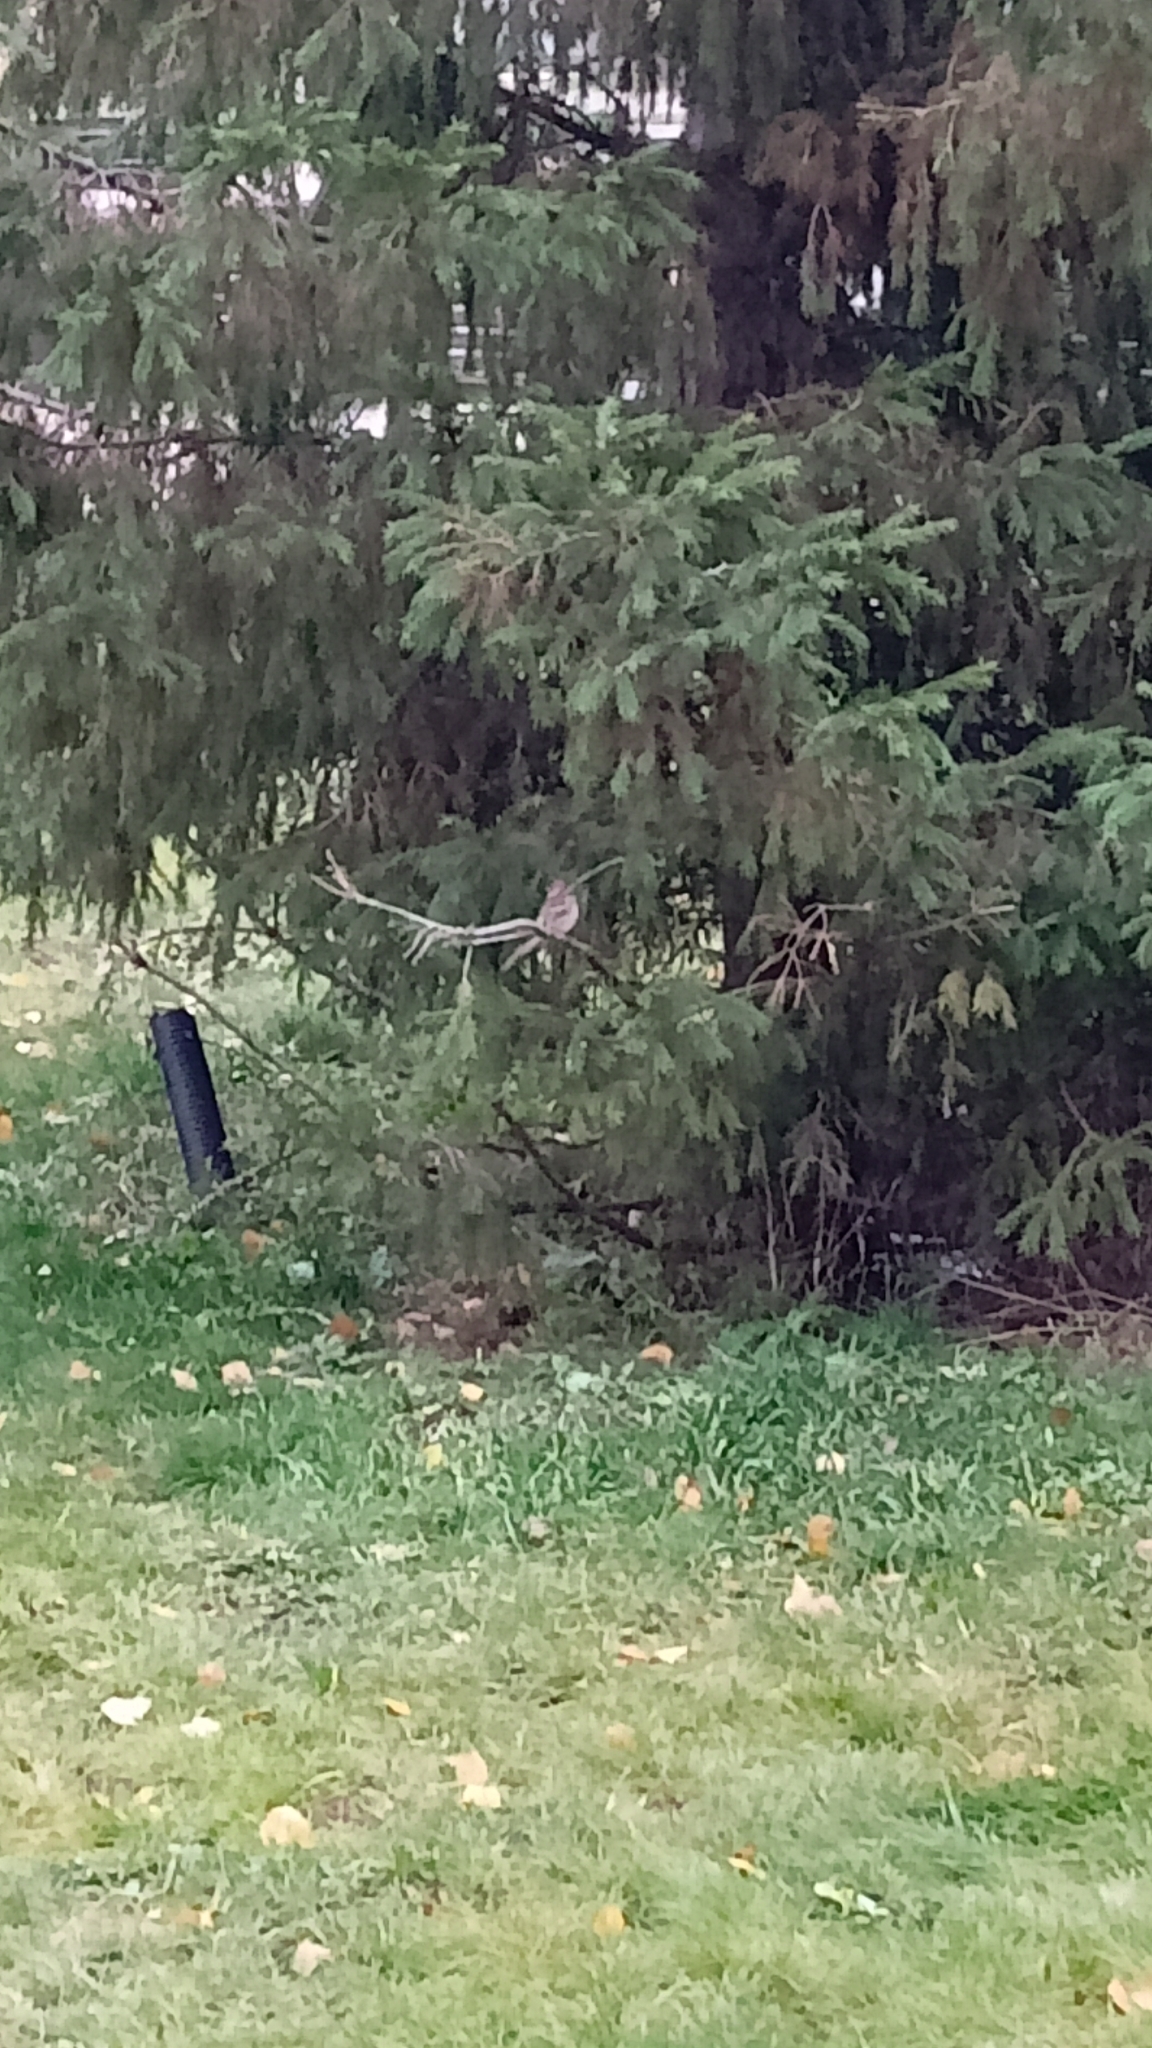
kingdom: Animalia
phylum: Chordata
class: Aves
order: Passeriformes
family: Passeridae
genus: Passer
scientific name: Passer montanus
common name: Eurasian tree sparrow
